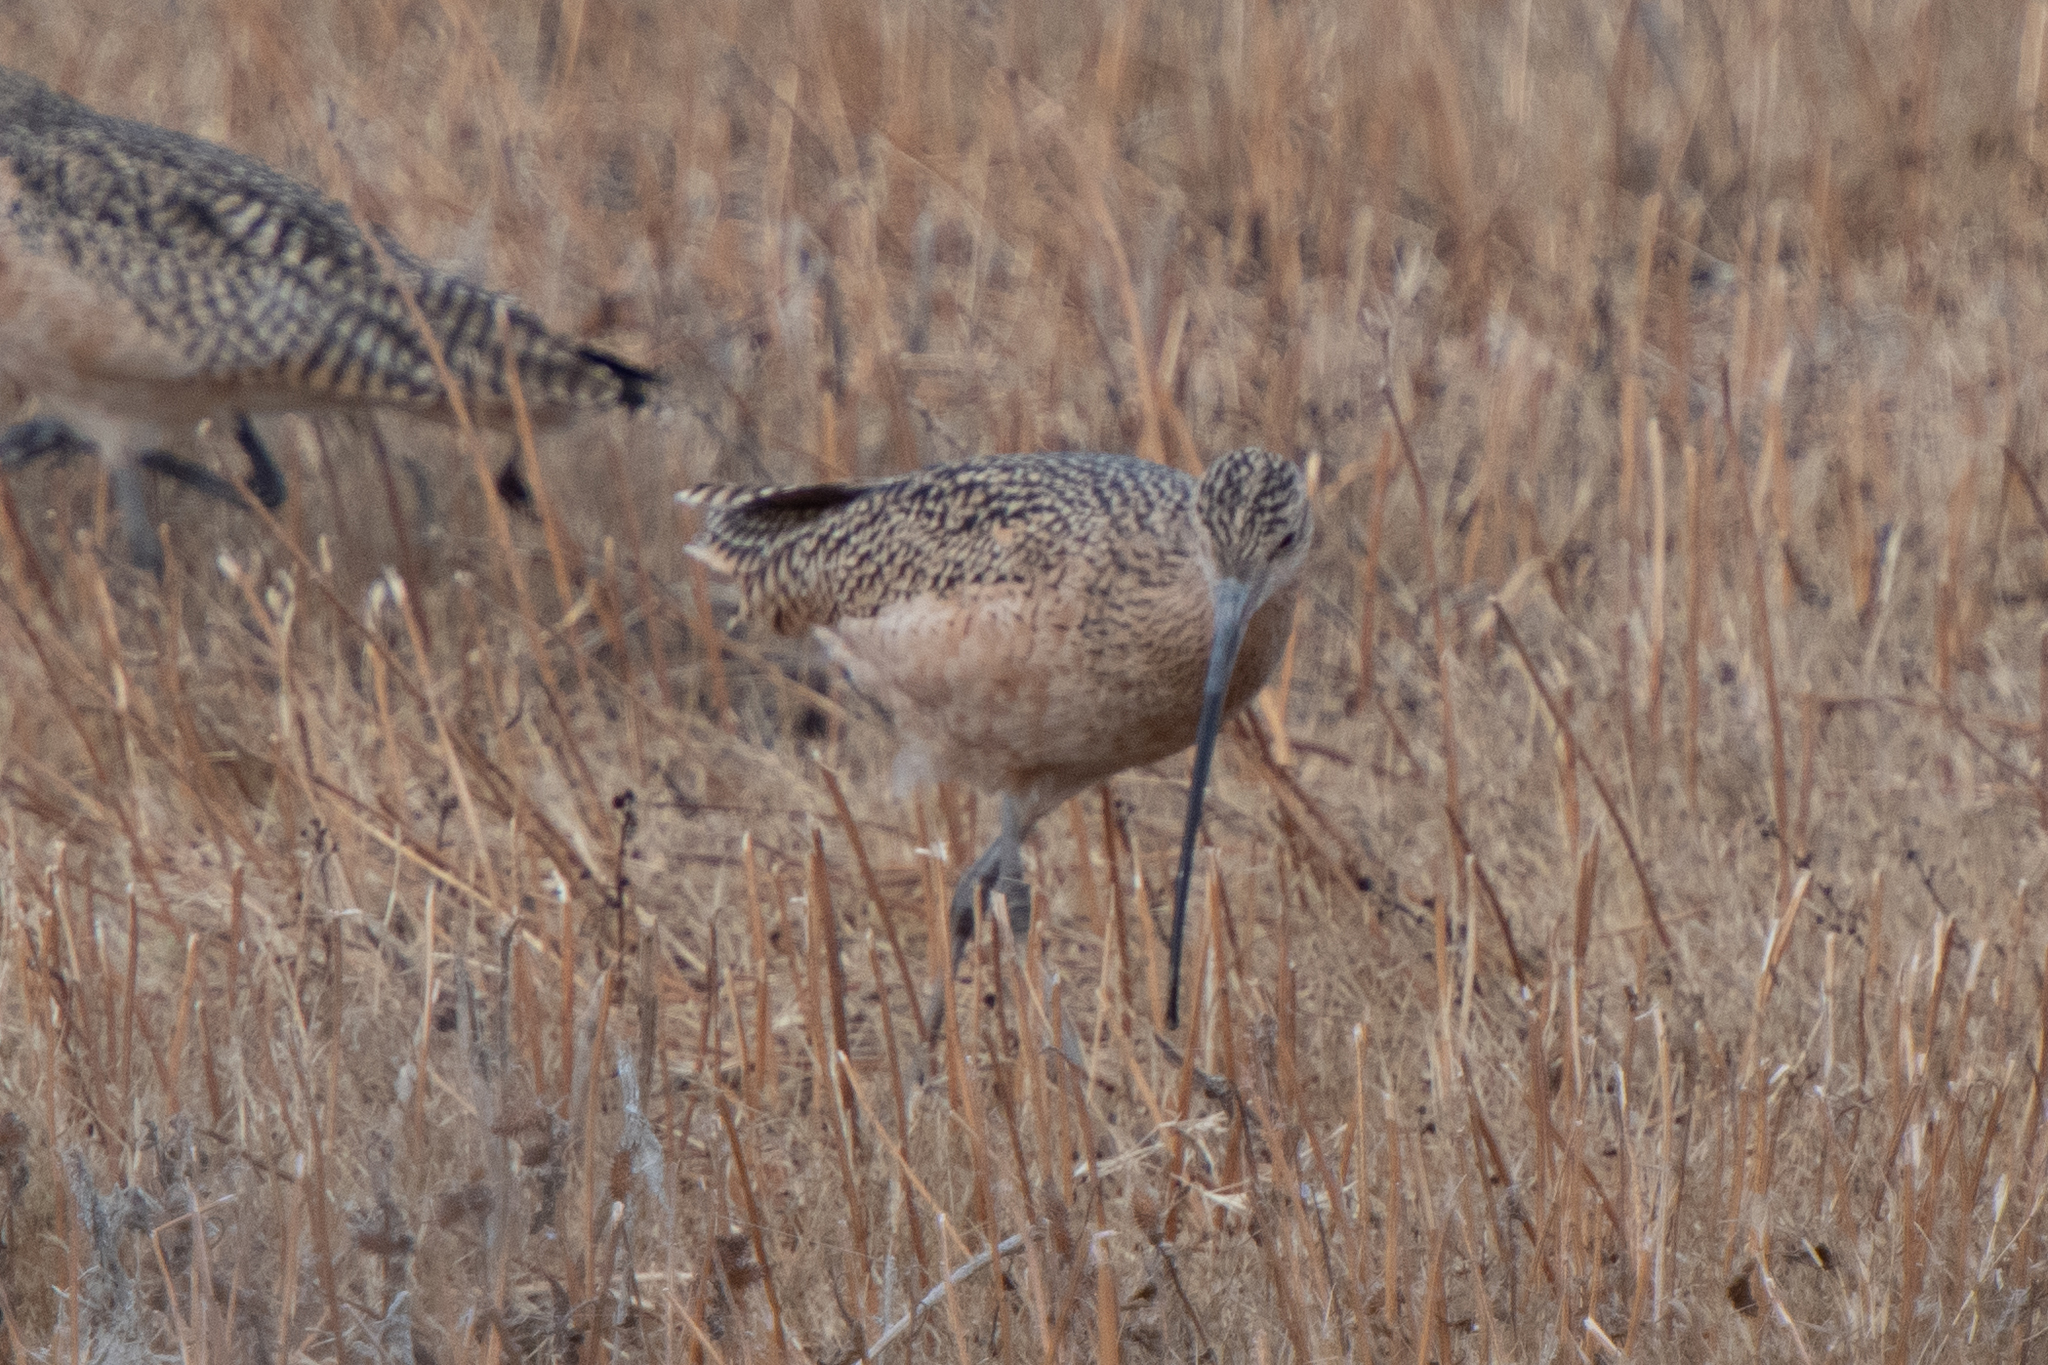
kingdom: Animalia
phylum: Chordata
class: Aves
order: Charadriiformes
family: Scolopacidae
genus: Numenius
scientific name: Numenius americanus
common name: Long-billed curlew
